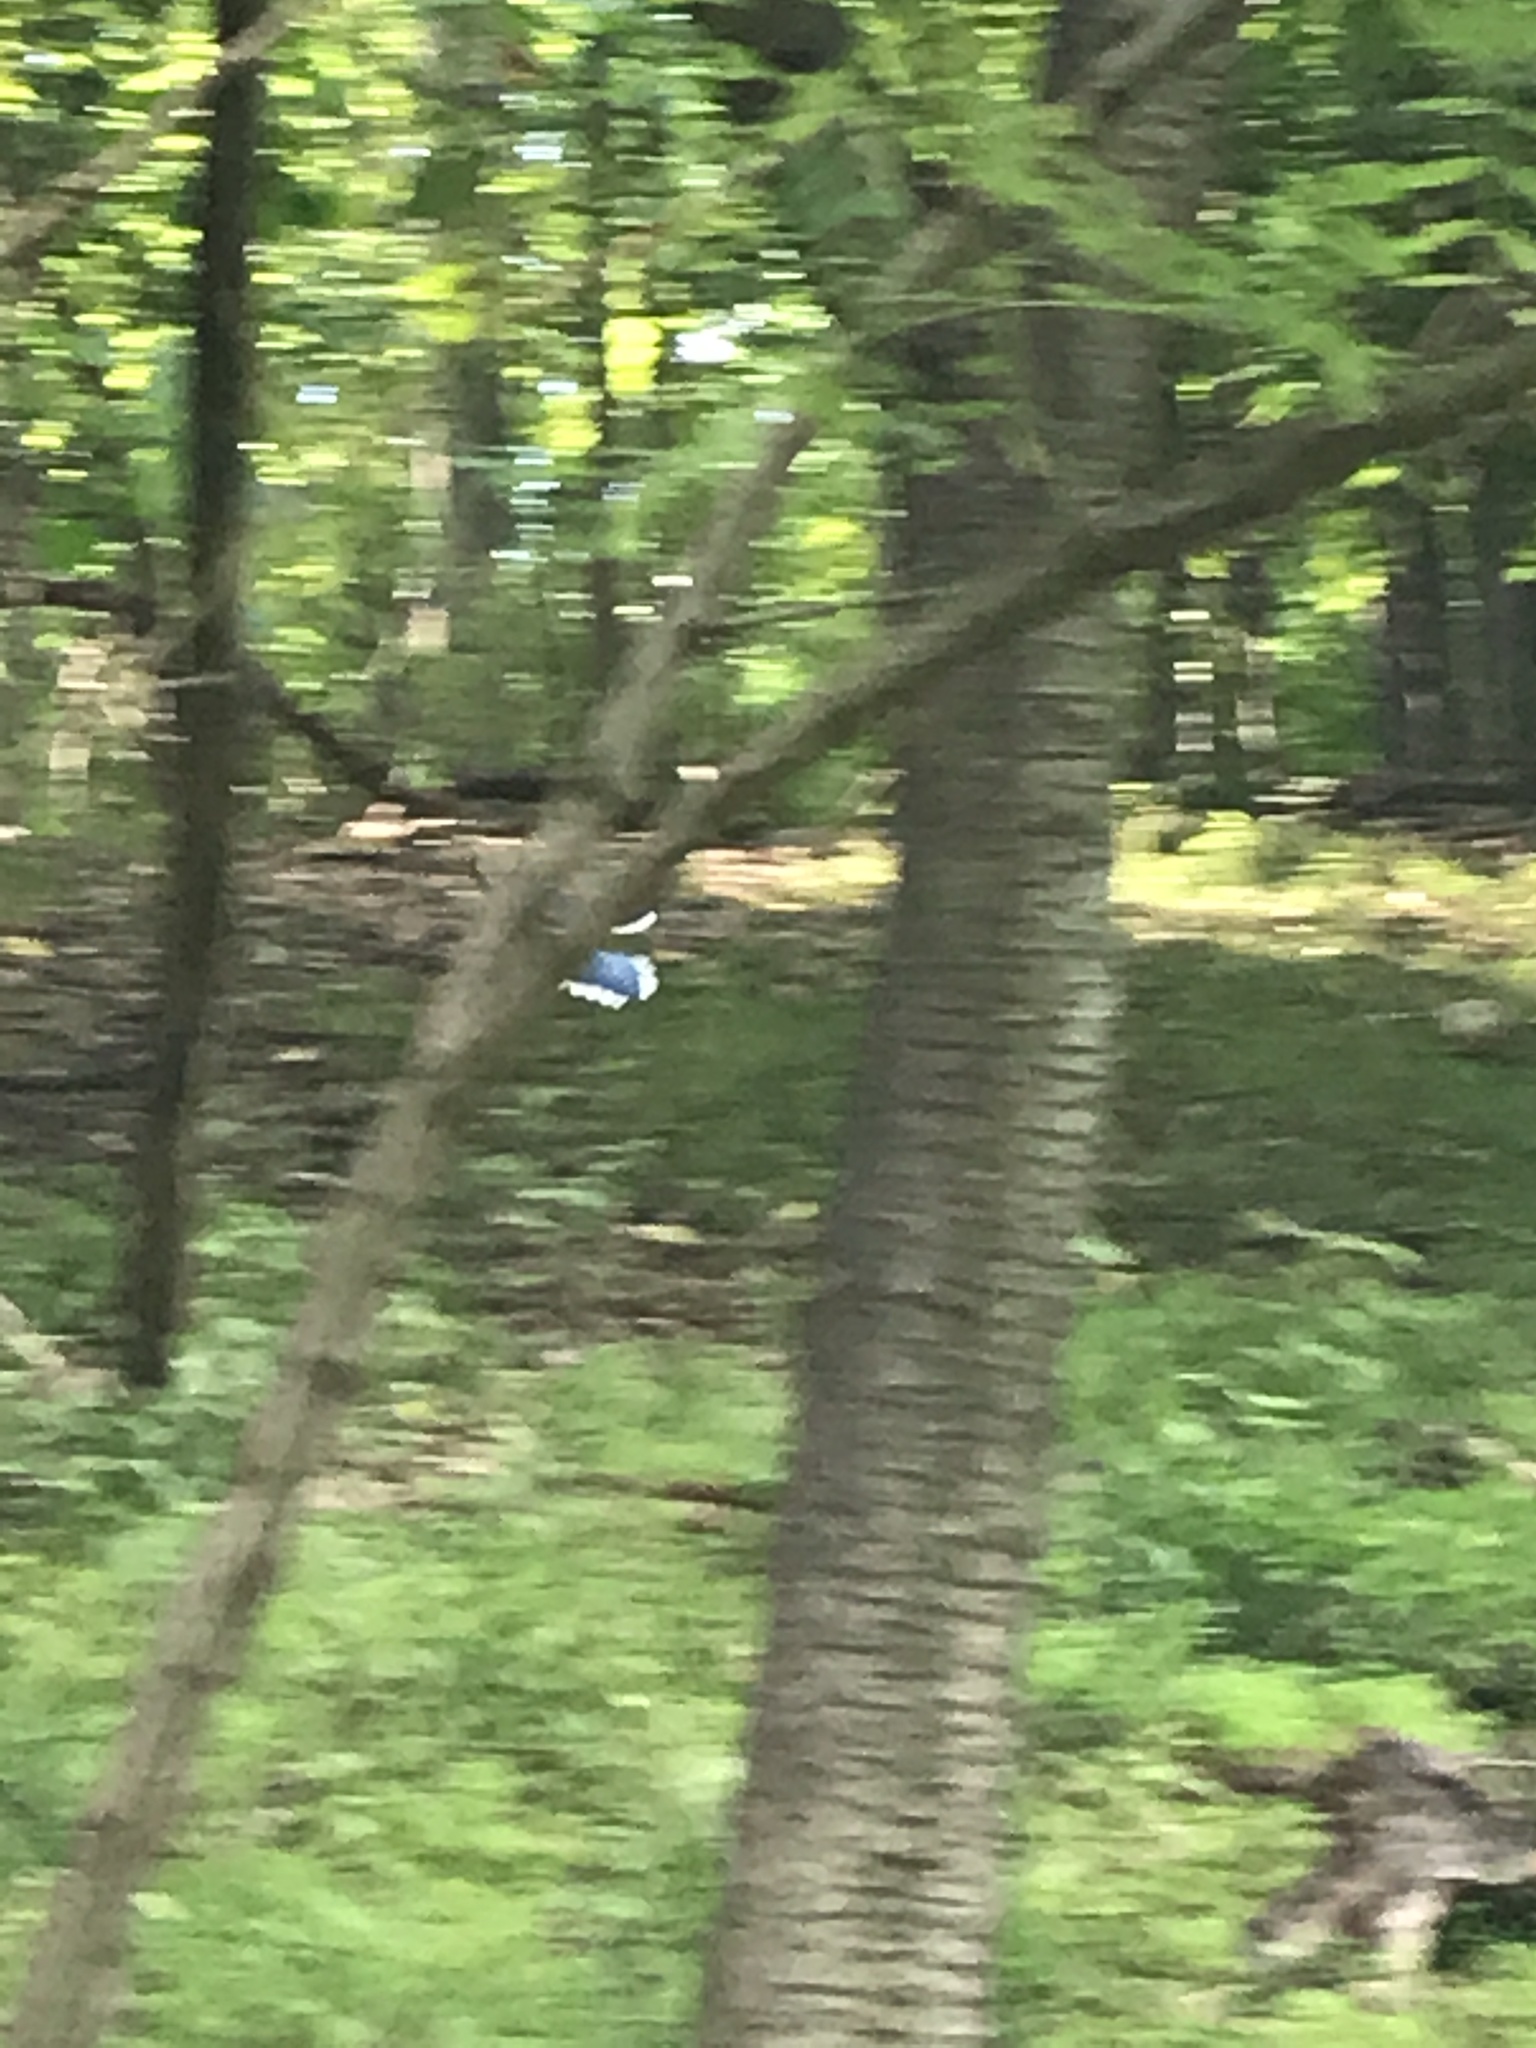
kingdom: Animalia
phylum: Chordata
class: Aves
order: Passeriformes
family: Corvidae
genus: Cyanocitta
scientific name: Cyanocitta cristata
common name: Blue jay
